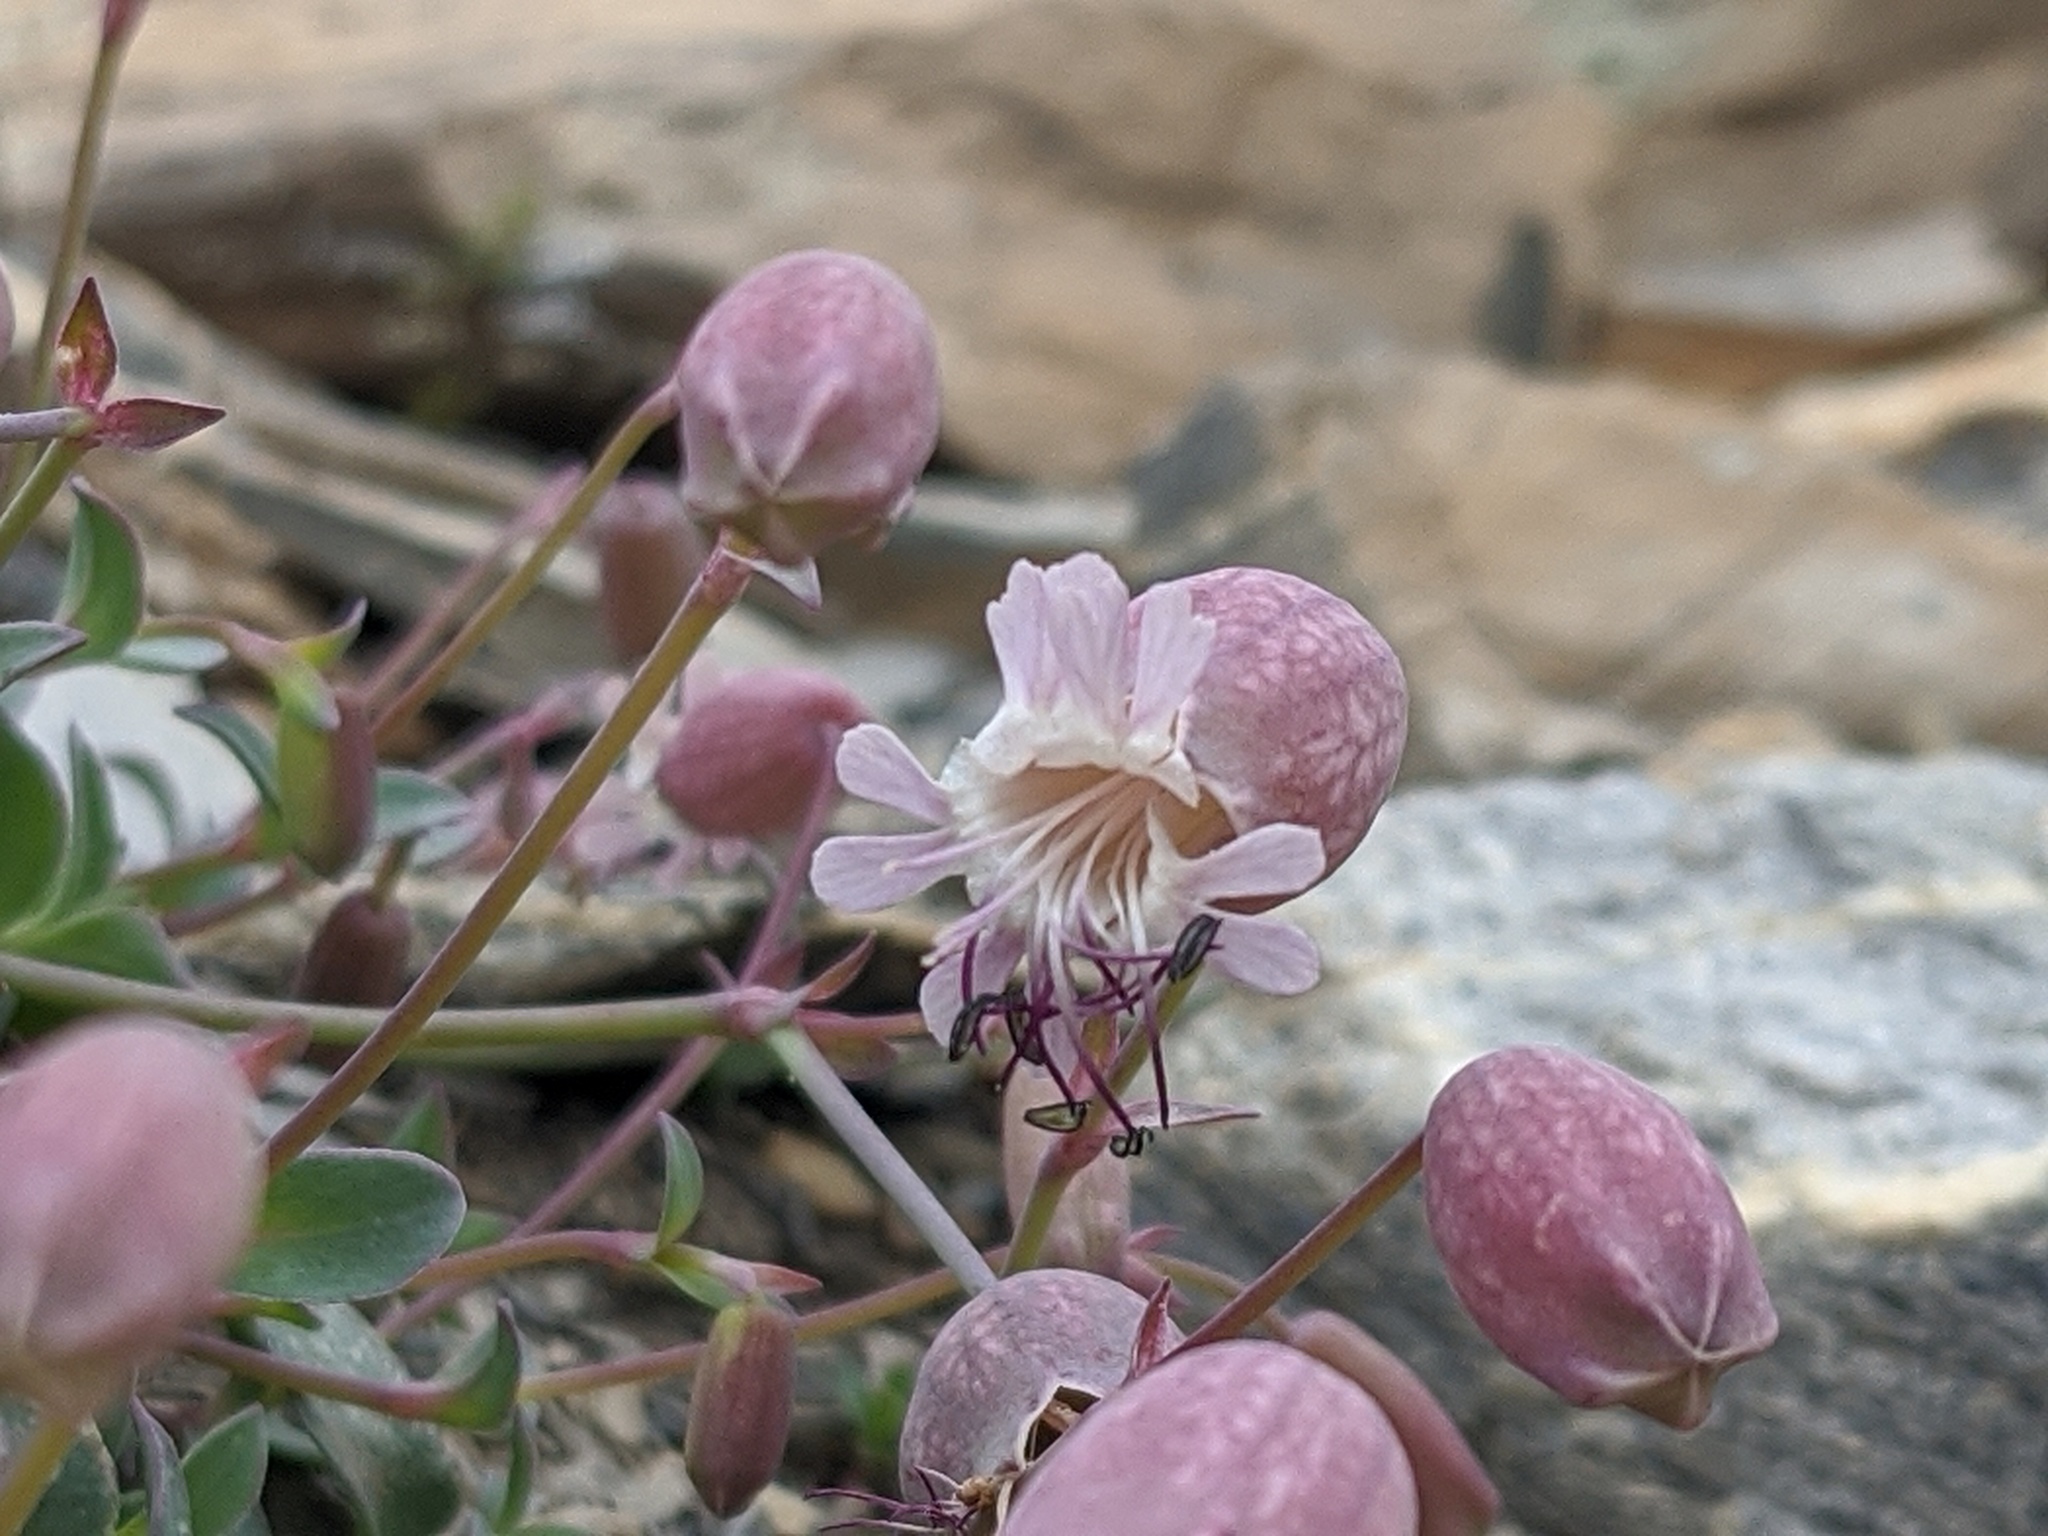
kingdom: Plantae
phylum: Tracheophyta
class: Magnoliopsida
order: Caryophyllales
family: Caryophyllaceae
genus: Silene
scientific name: Silene glareosa
